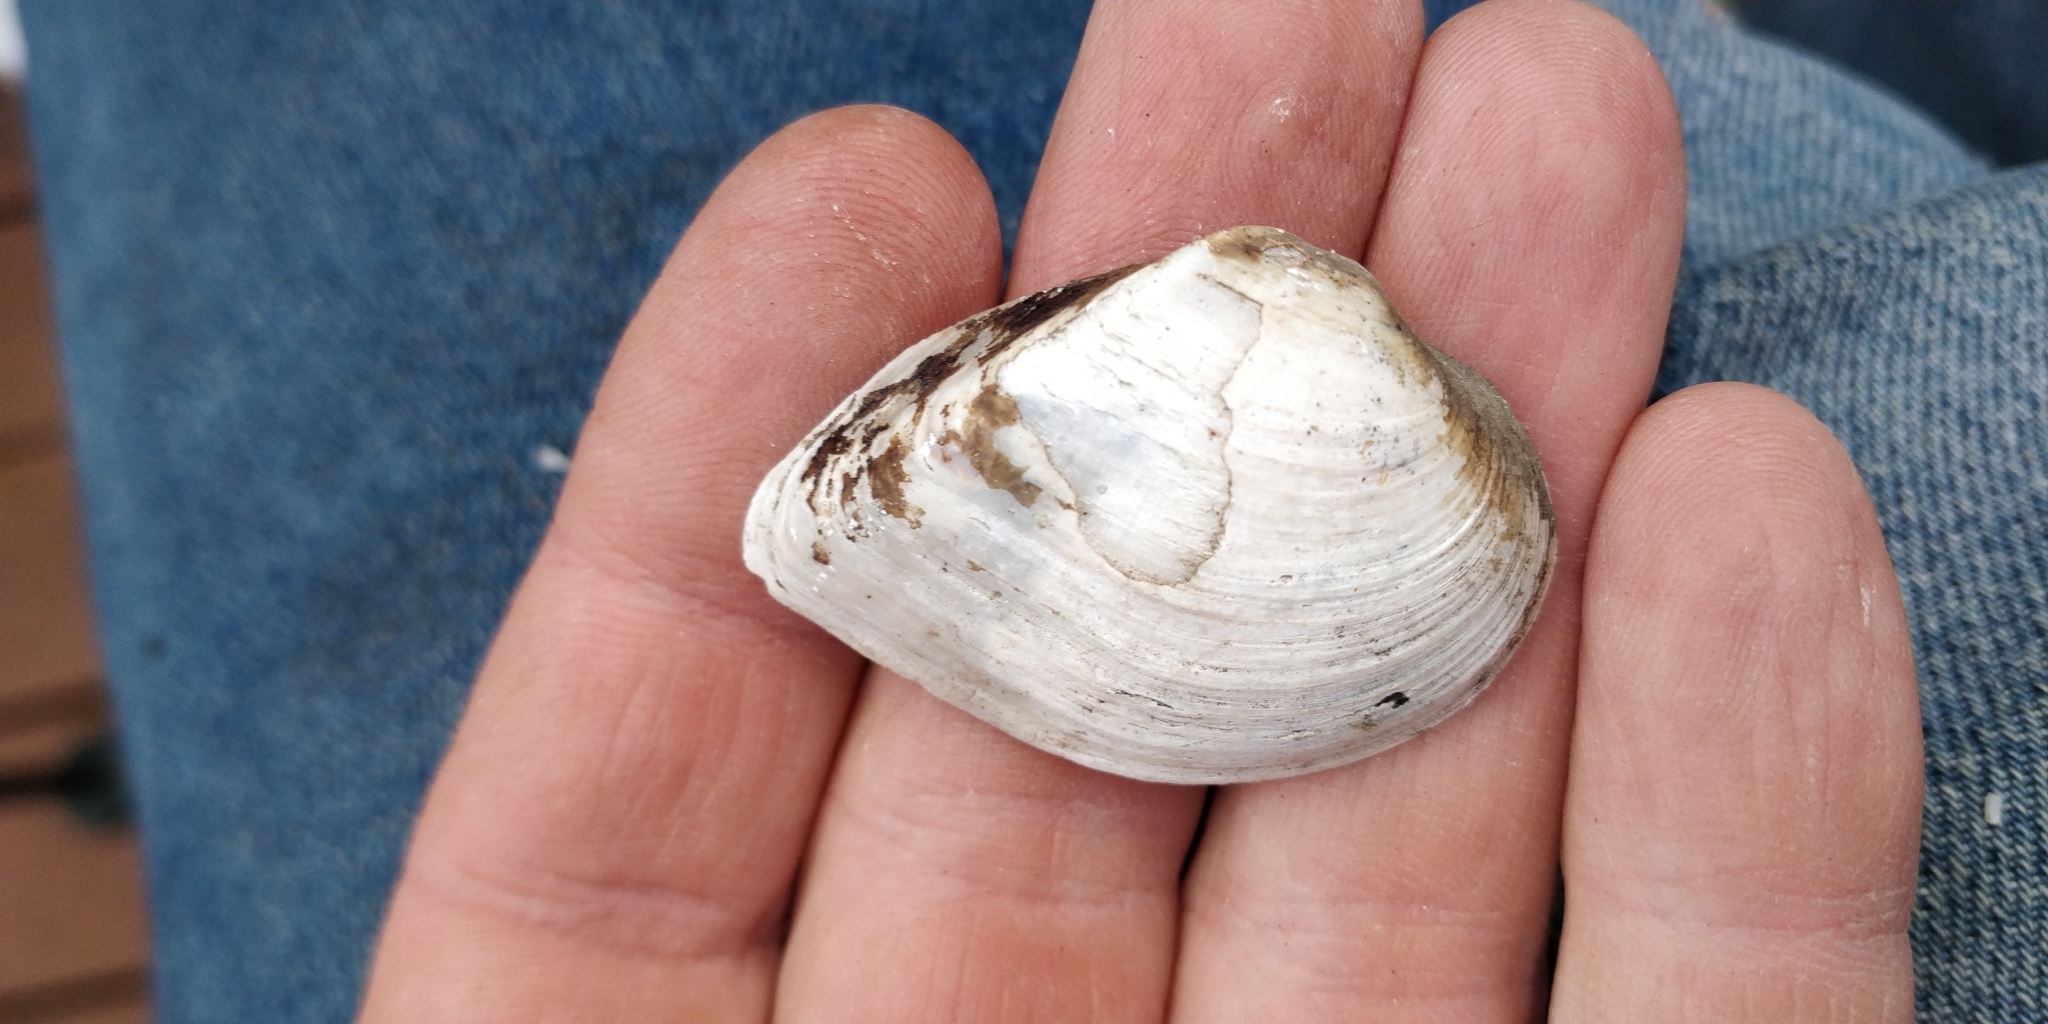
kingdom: Animalia
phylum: Mollusca
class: Bivalvia
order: Unionida
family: Unionidae
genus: Truncilla
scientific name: Truncilla truncata
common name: Deertoe
